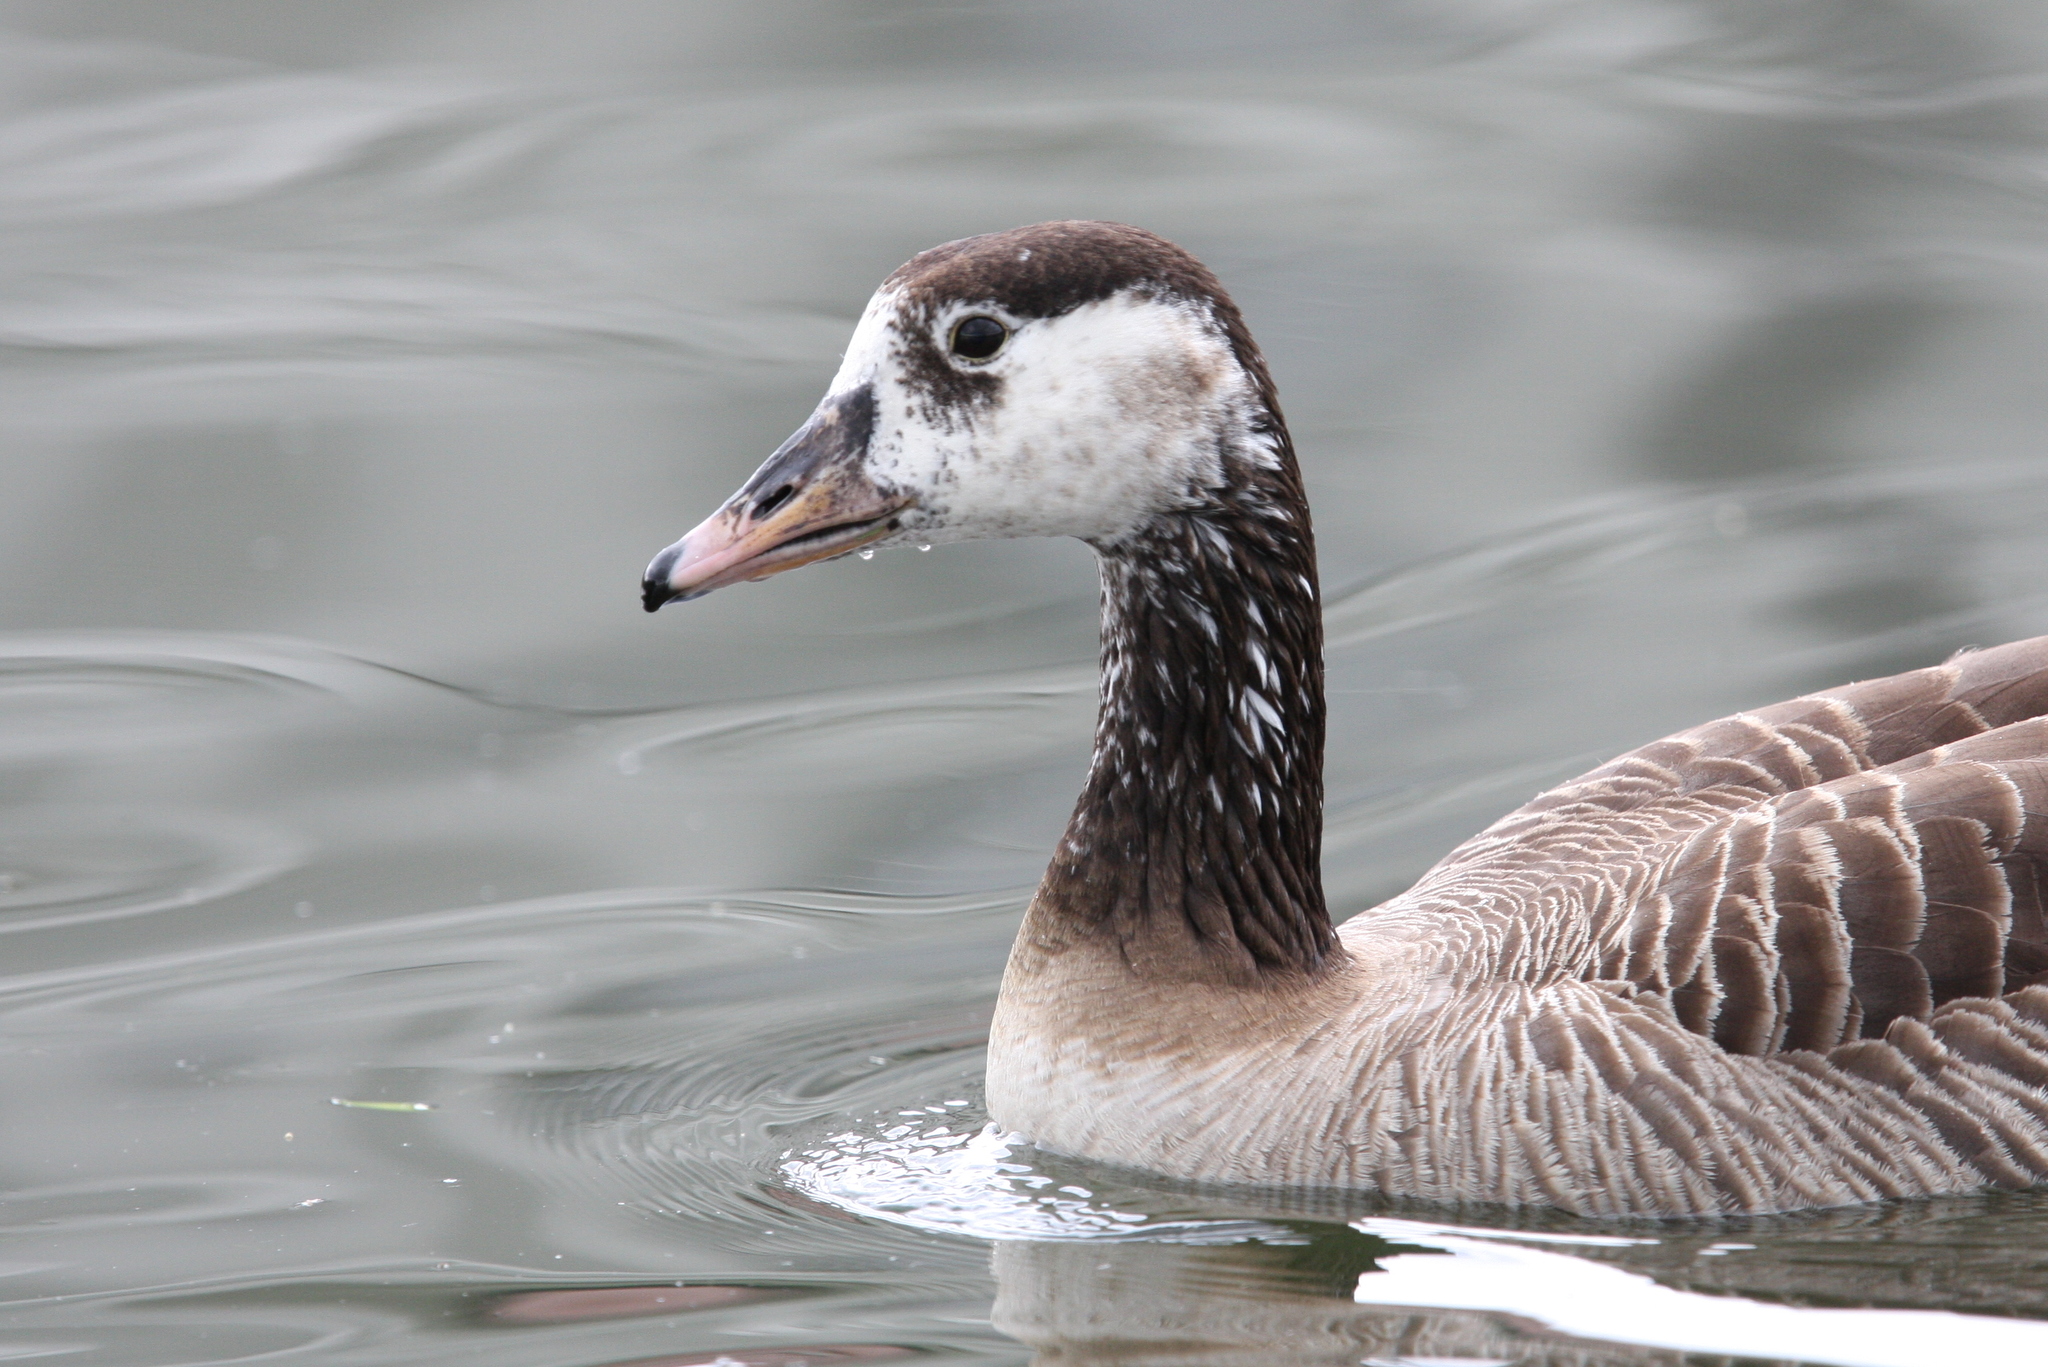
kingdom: Animalia
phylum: Chordata
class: Aves
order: Anseriformes
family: Anatidae
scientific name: Anatidae
